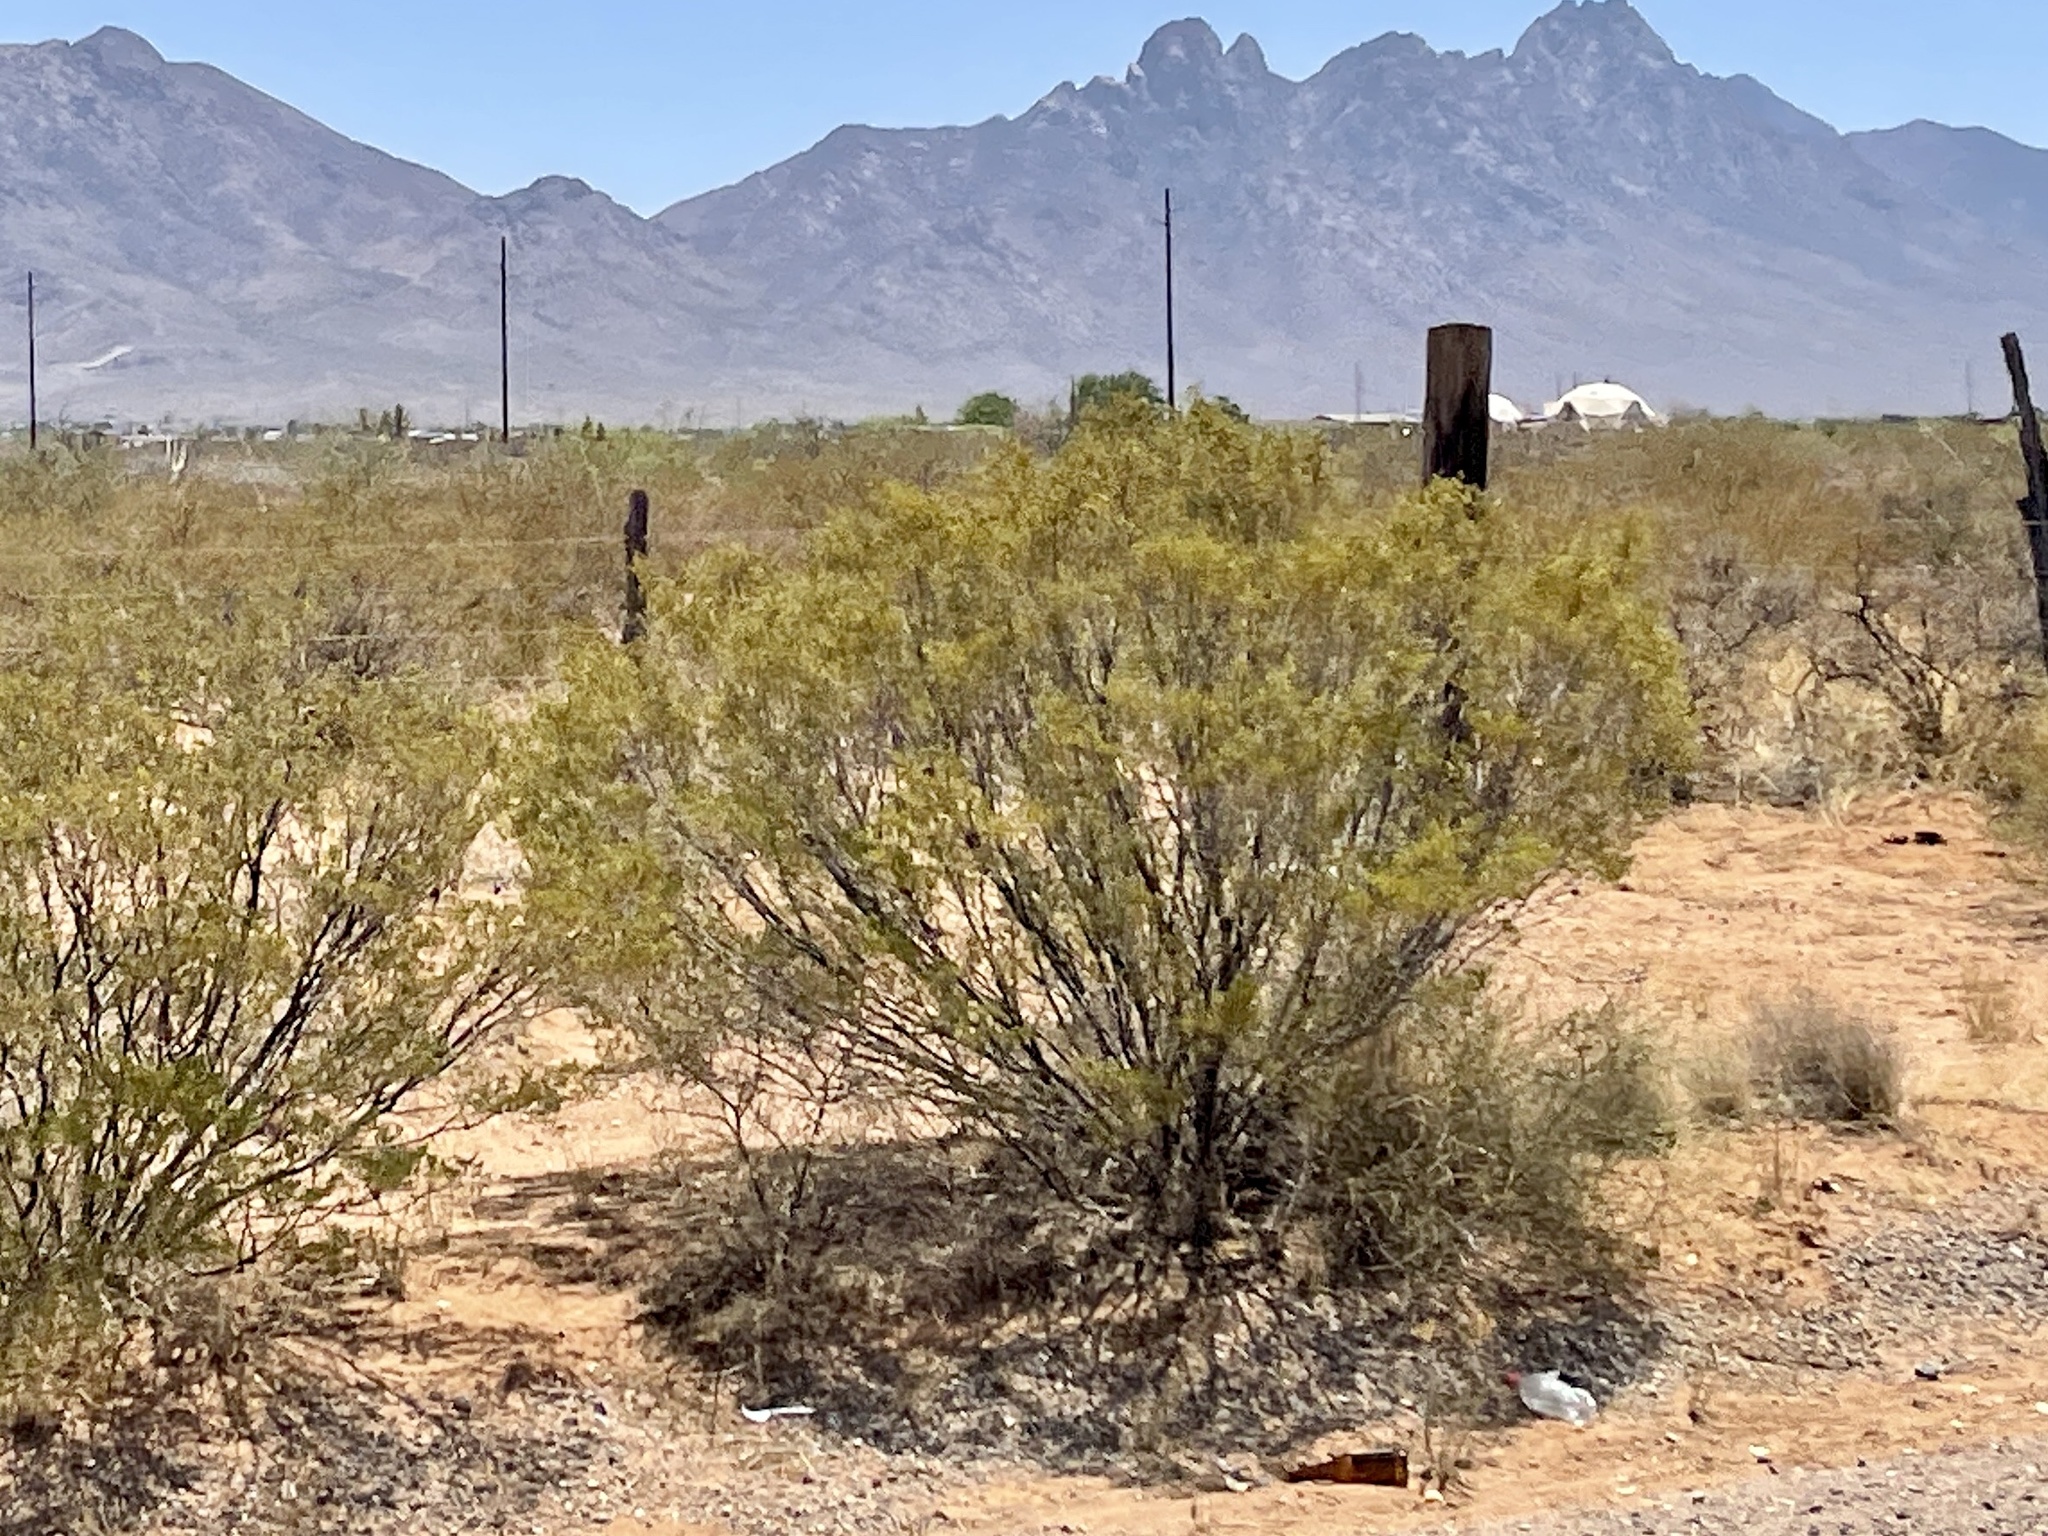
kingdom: Plantae
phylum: Tracheophyta
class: Magnoliopsida
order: Zygophyllales
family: Zygophyllaceae
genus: Larrea
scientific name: Larrea tridentata
